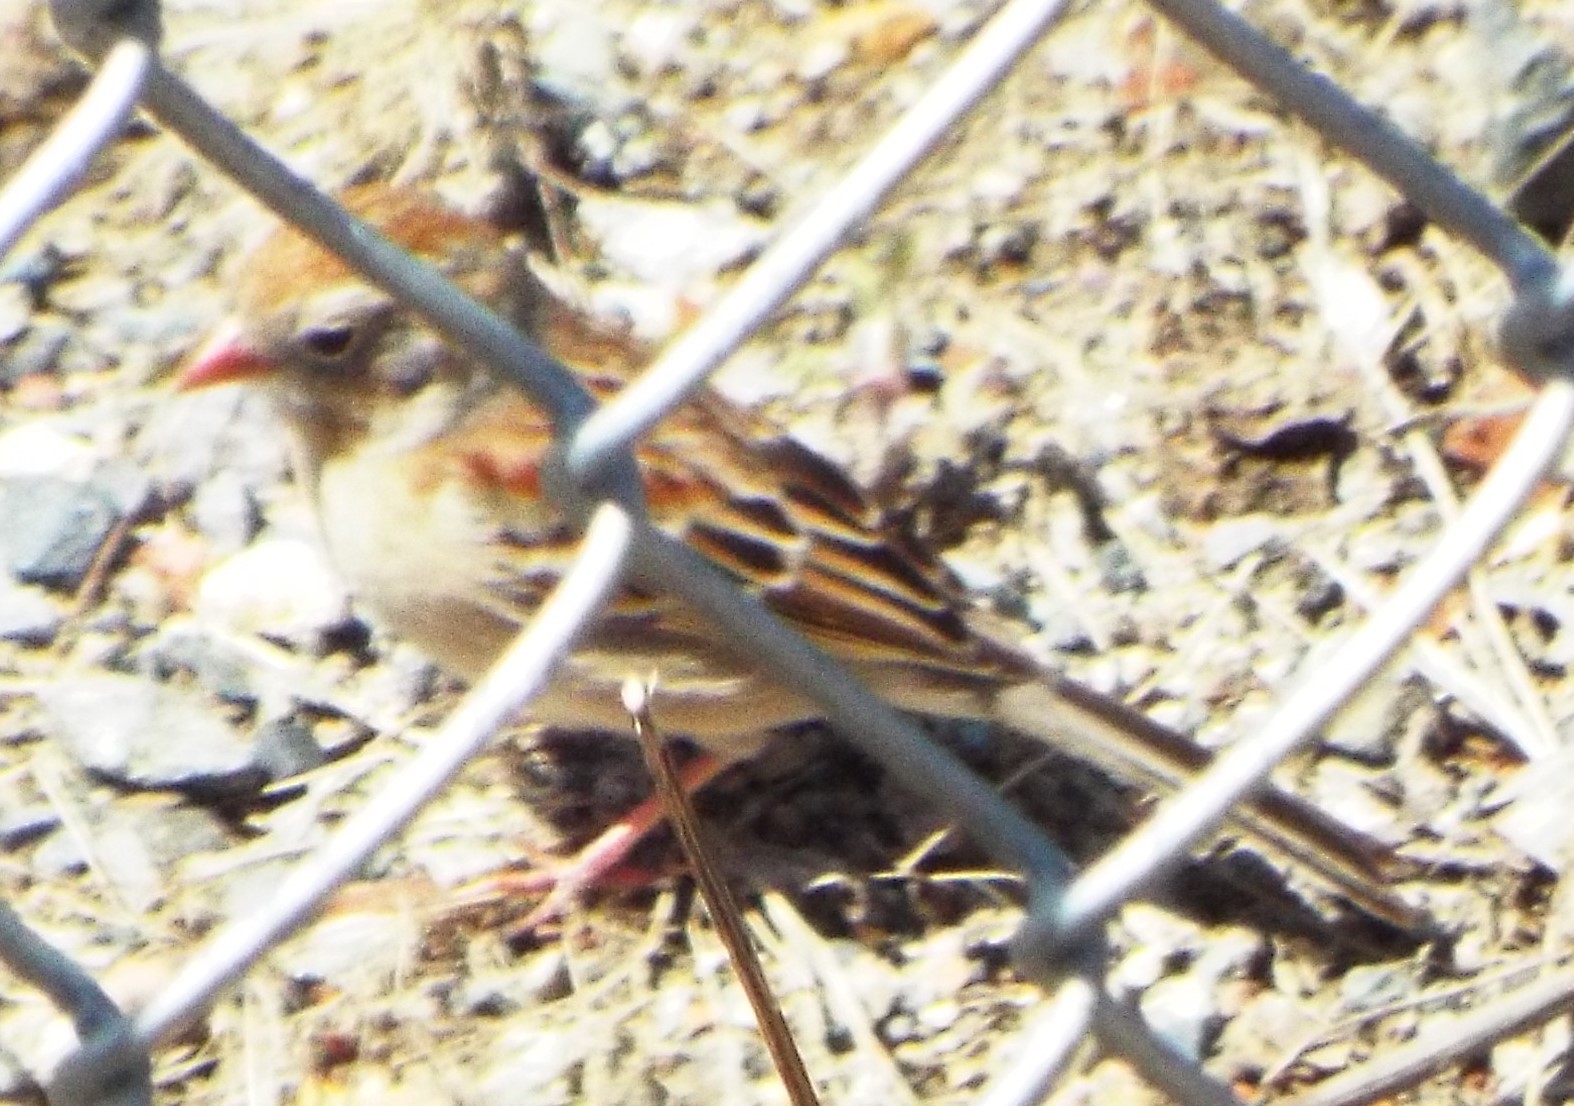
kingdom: Animalia
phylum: Chordata
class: Aves
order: Passeriformes
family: Passerellidae
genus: Spizella
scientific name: Spizella pusilla
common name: Field sparrow
